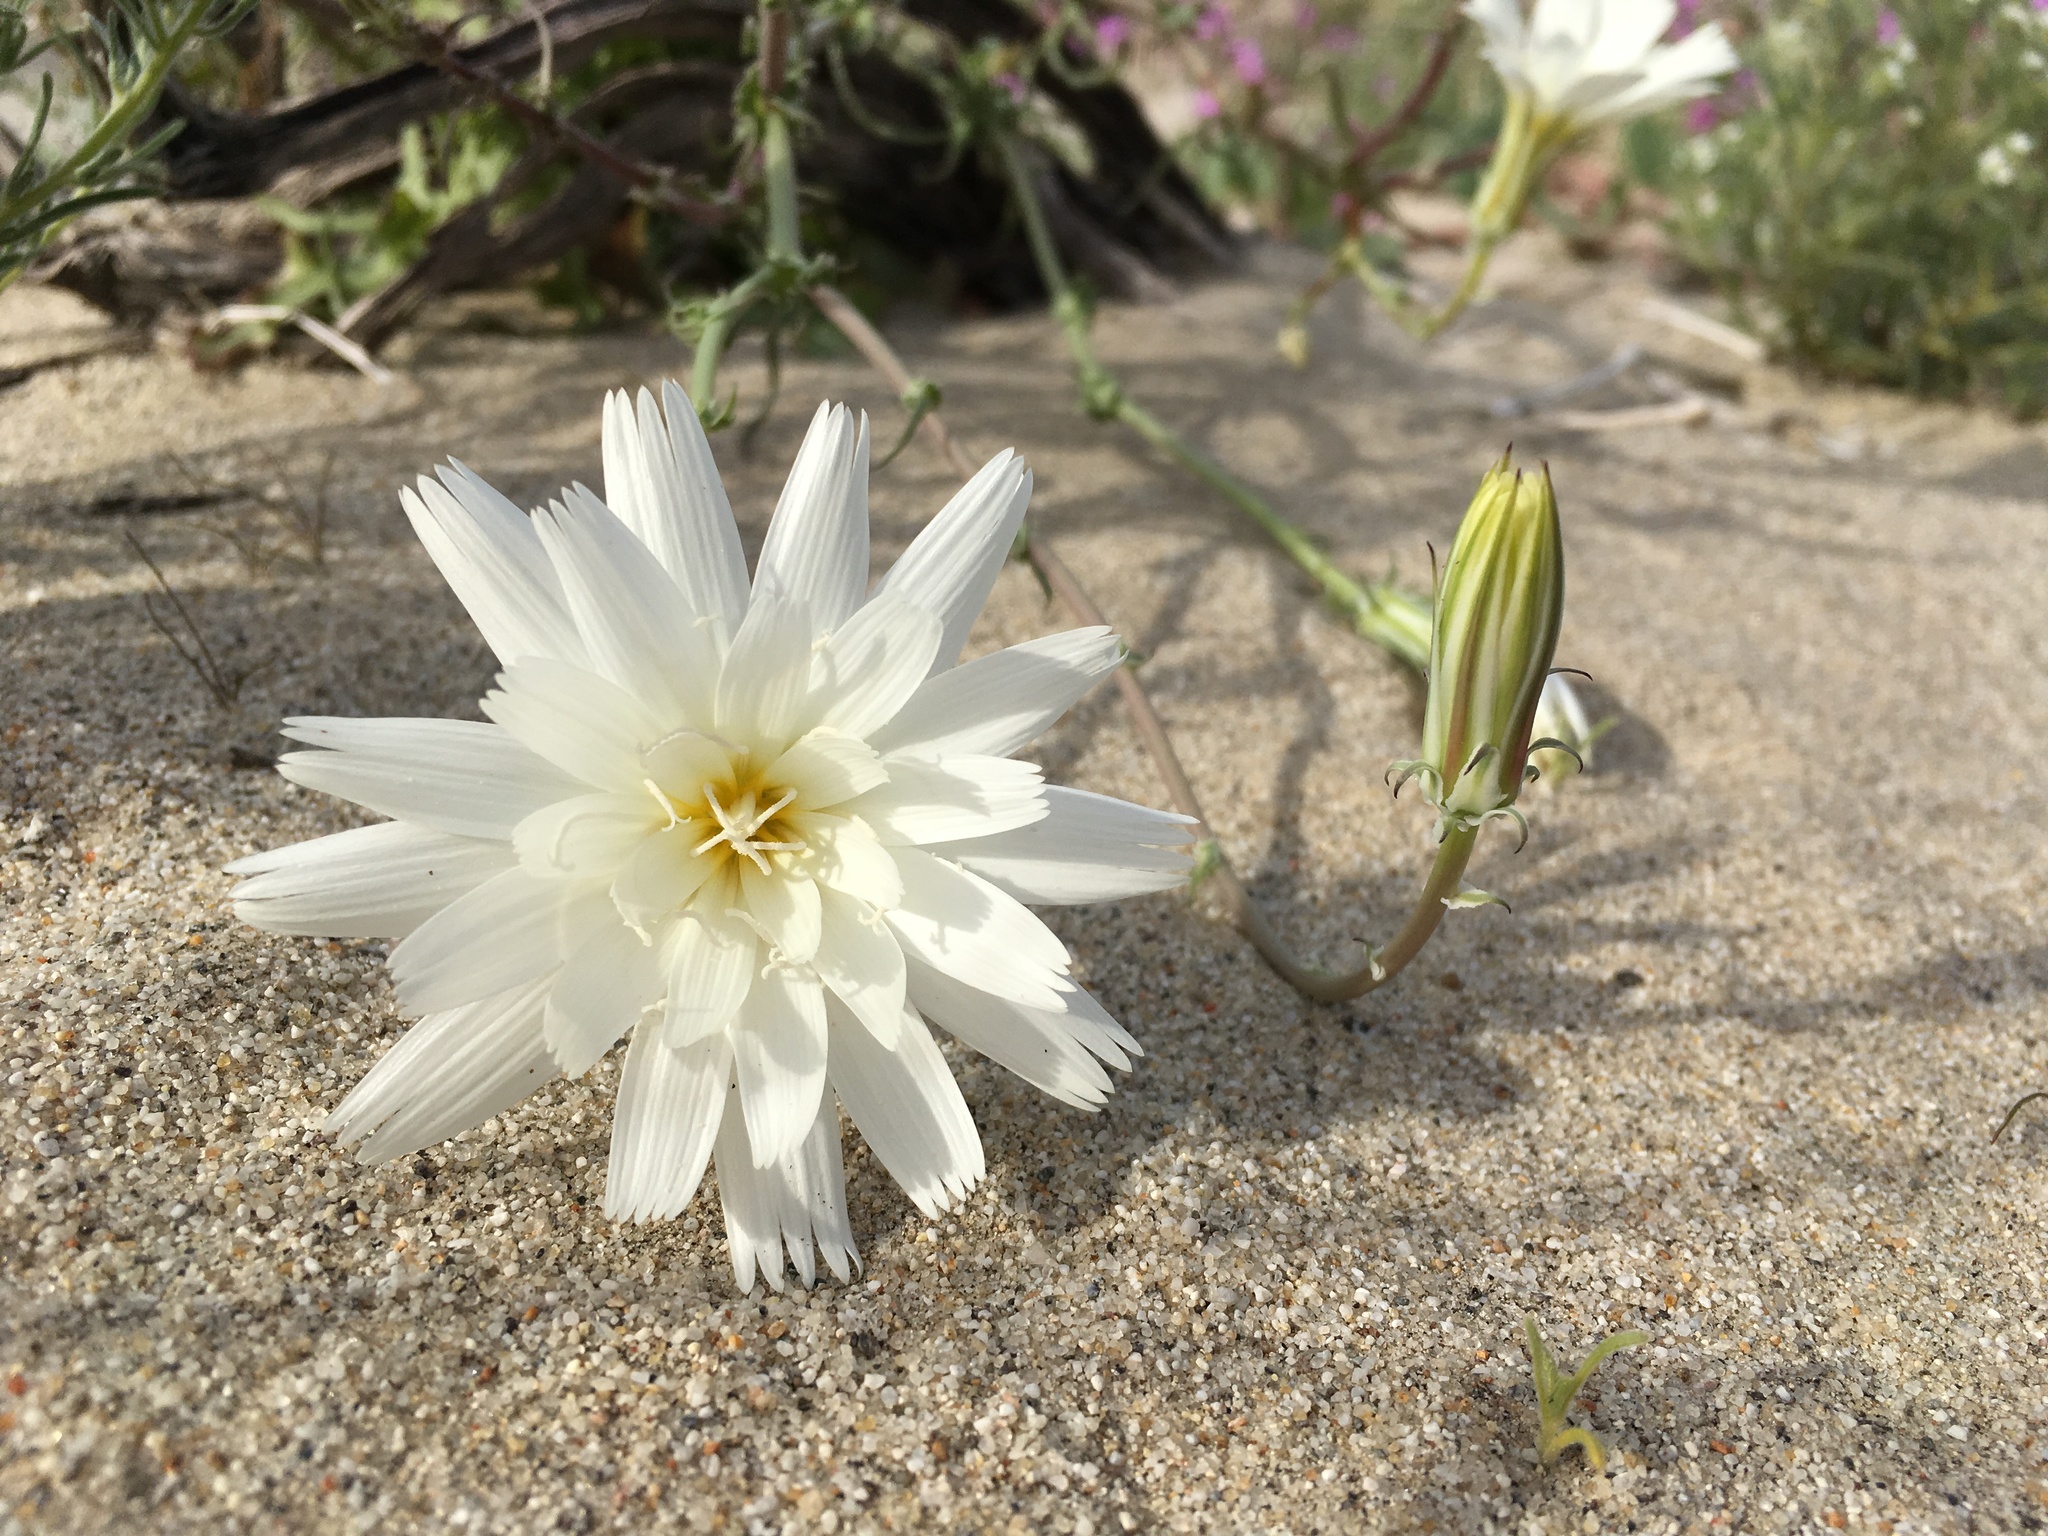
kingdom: Plantae
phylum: Tracheophyta
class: Magnoliopsida
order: Asterales
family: Asteraceae
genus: Rafinesquia
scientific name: Rafinesquia neomexicana
